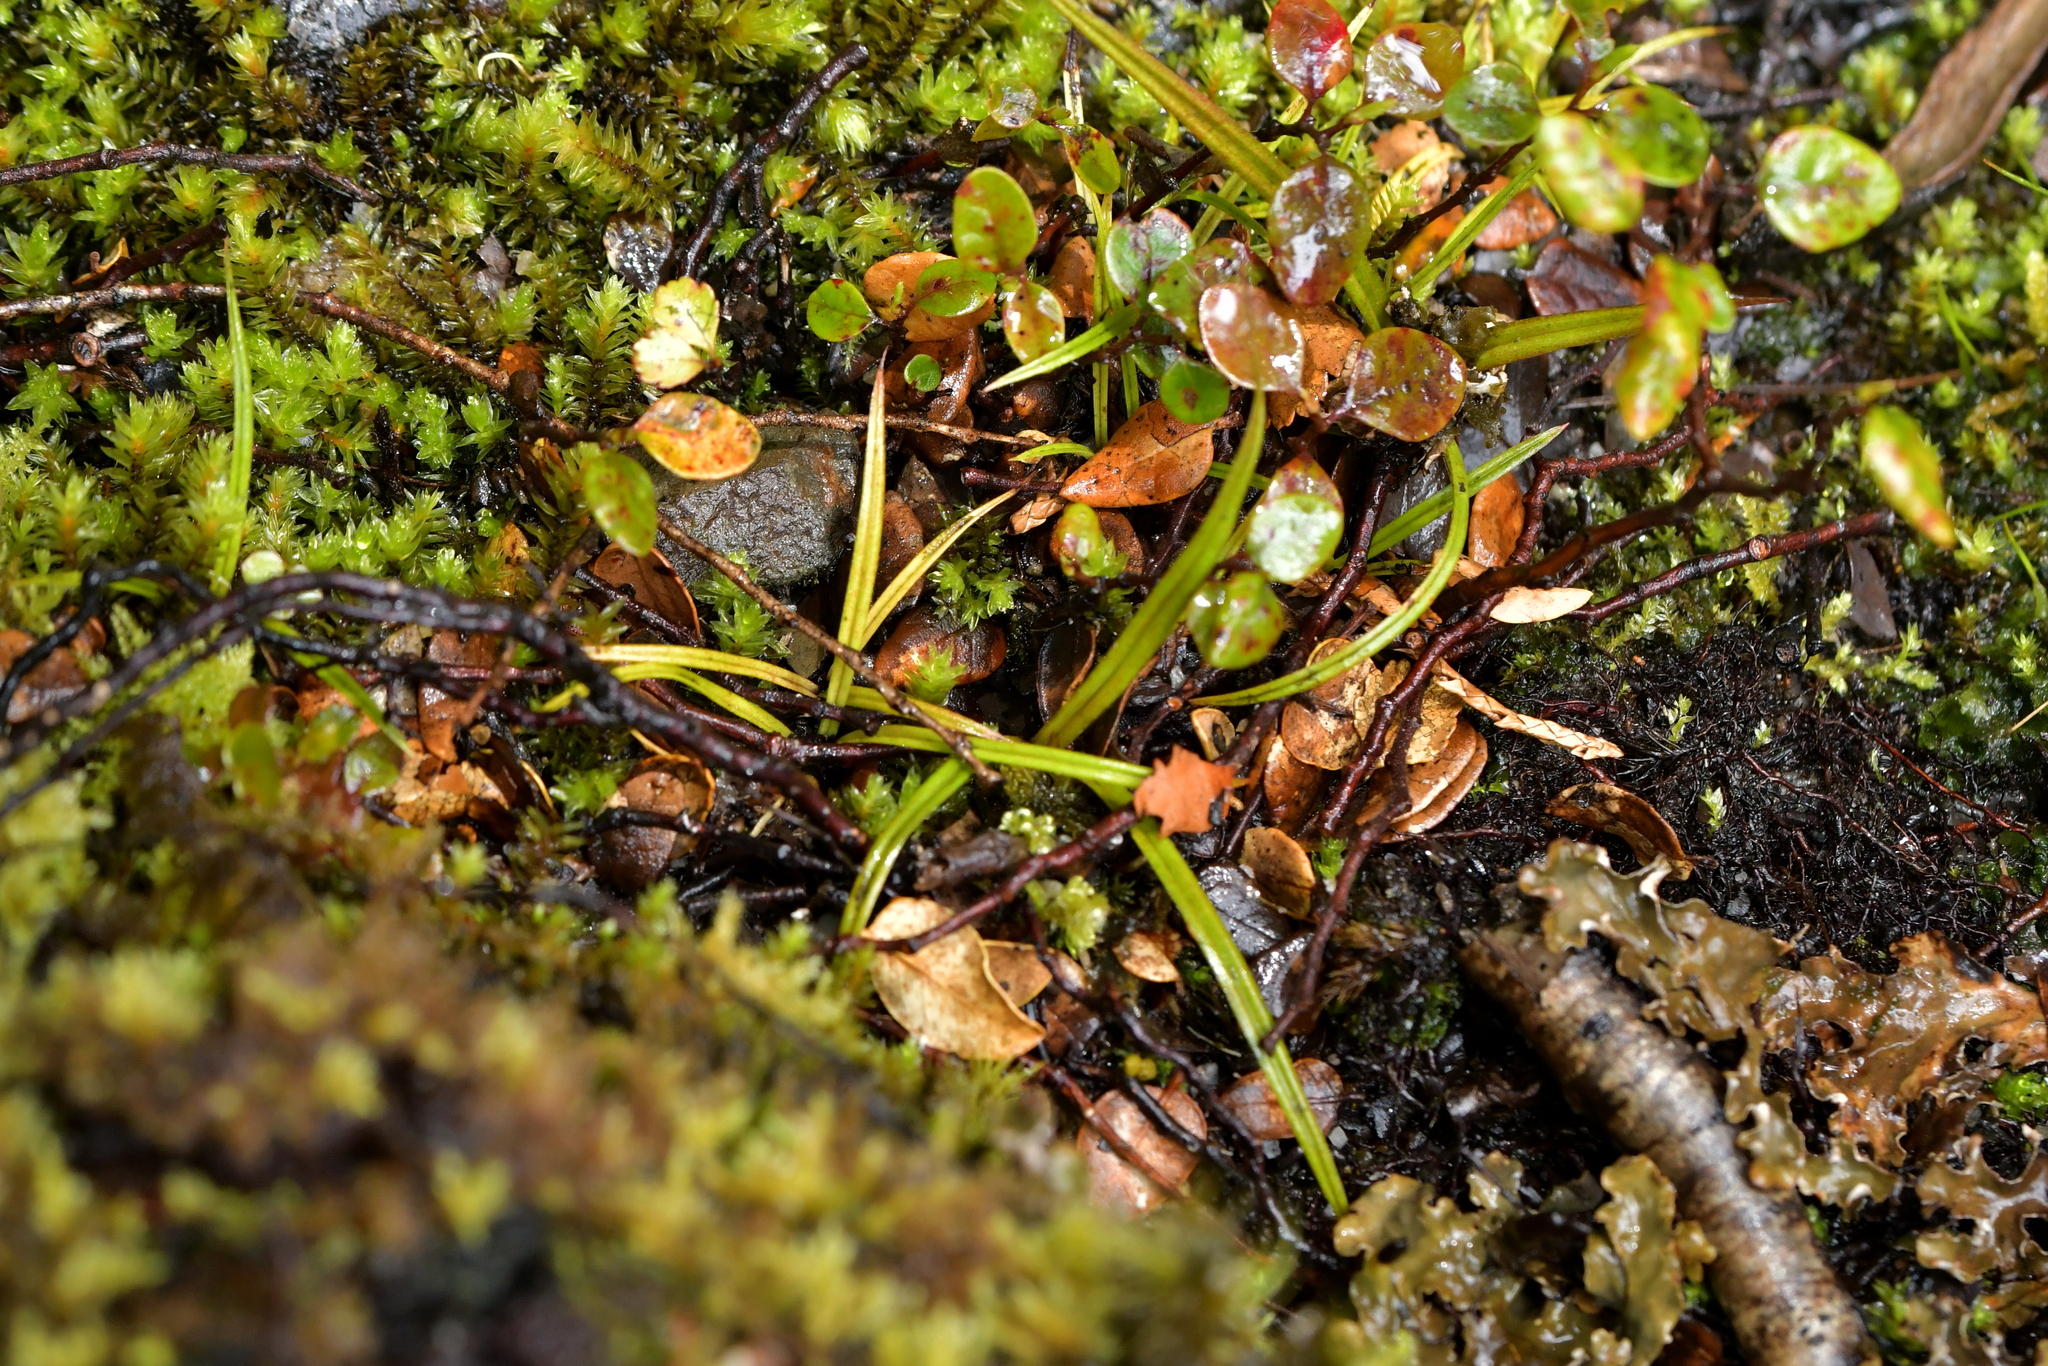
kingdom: Plantae
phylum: Tracheophyta
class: Liliopsida
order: Asparagales
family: Asteliaceae
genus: Astelia
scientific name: Astelia linearis
